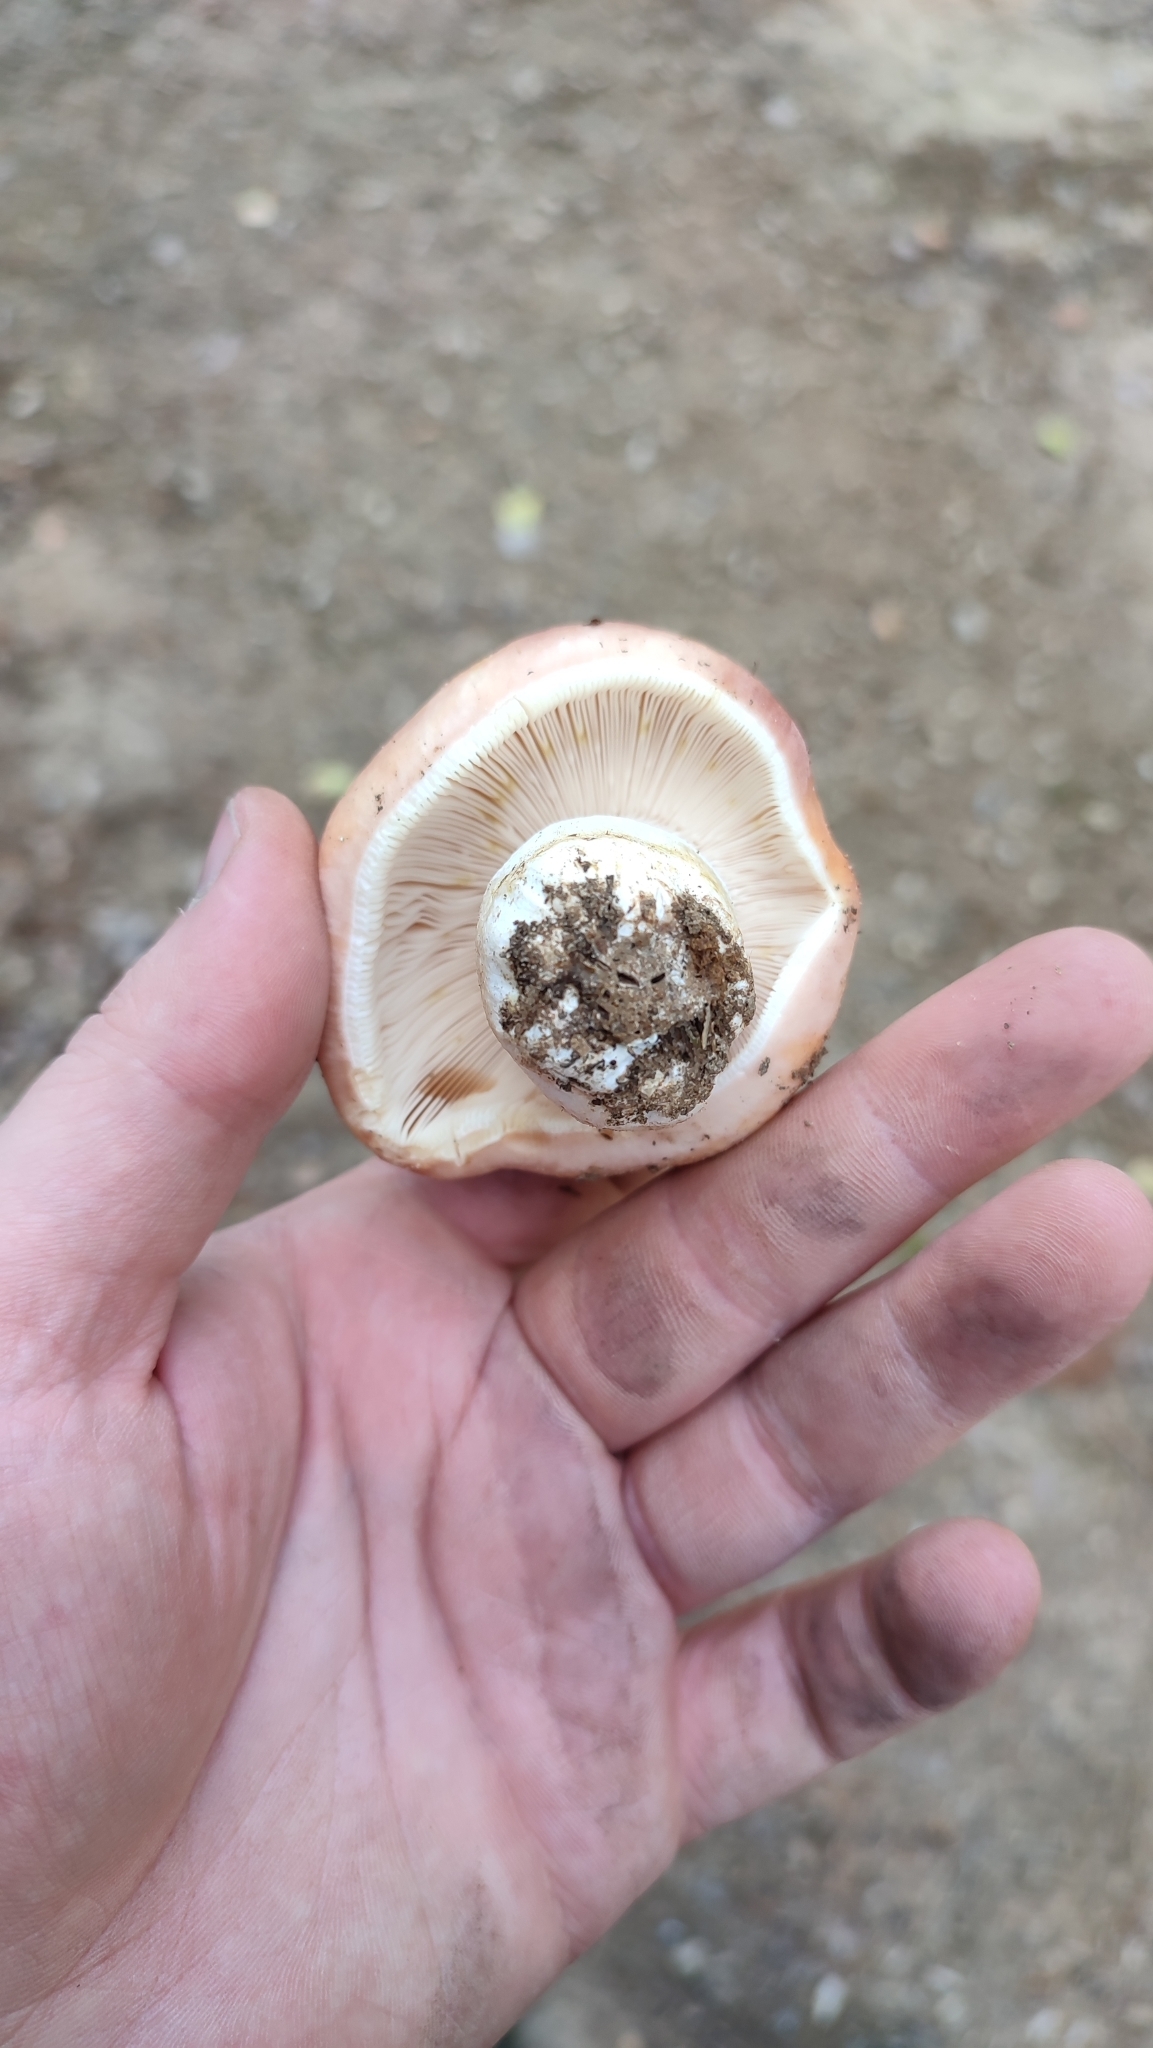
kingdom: Fungi
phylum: Basidiomycota
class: Agaricomycetes
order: Russulales
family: Russulaceae
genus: Russula
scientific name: Russula vesca
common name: Bare-toothed russula
